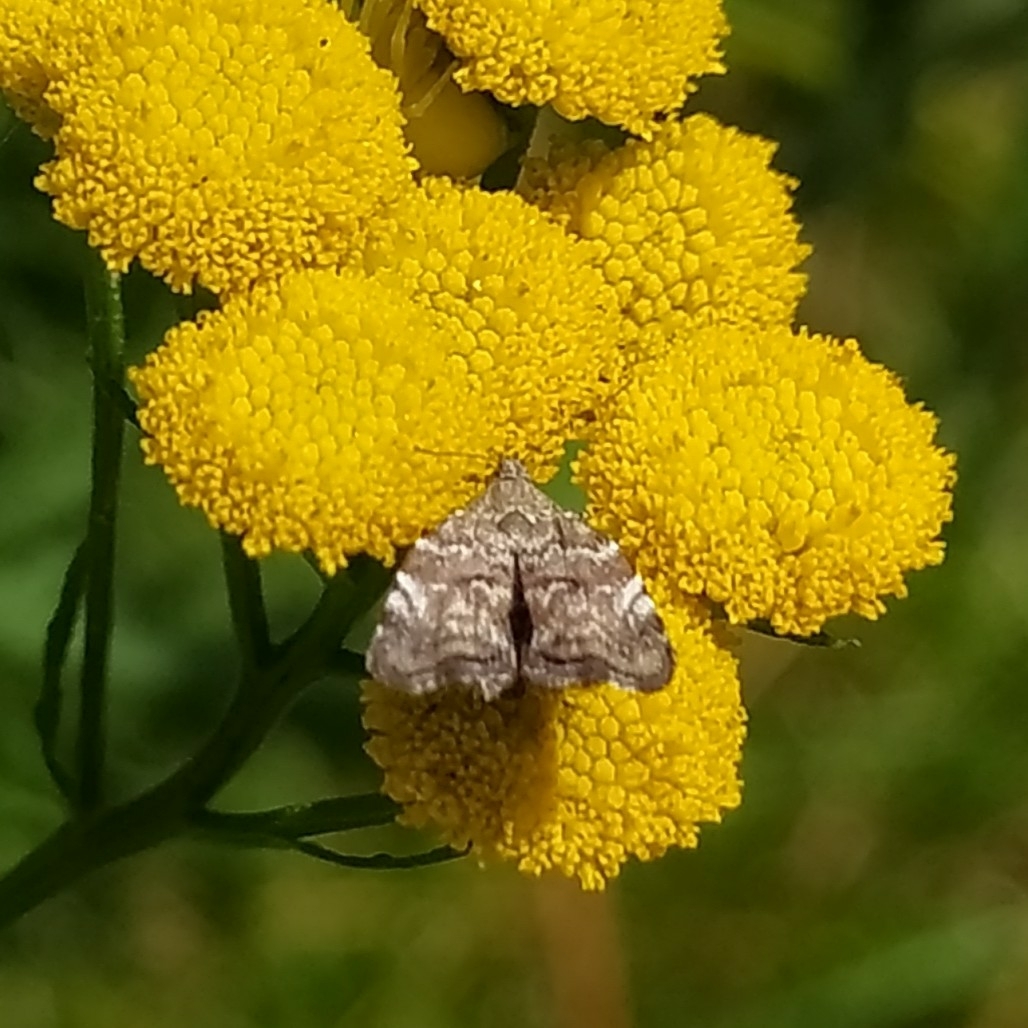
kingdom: Animalia
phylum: Arthropoda
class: Insecta
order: Lepidoptera
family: Choreutidae
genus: Choreutis
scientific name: Choreutis diana
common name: Inverness twitcher
